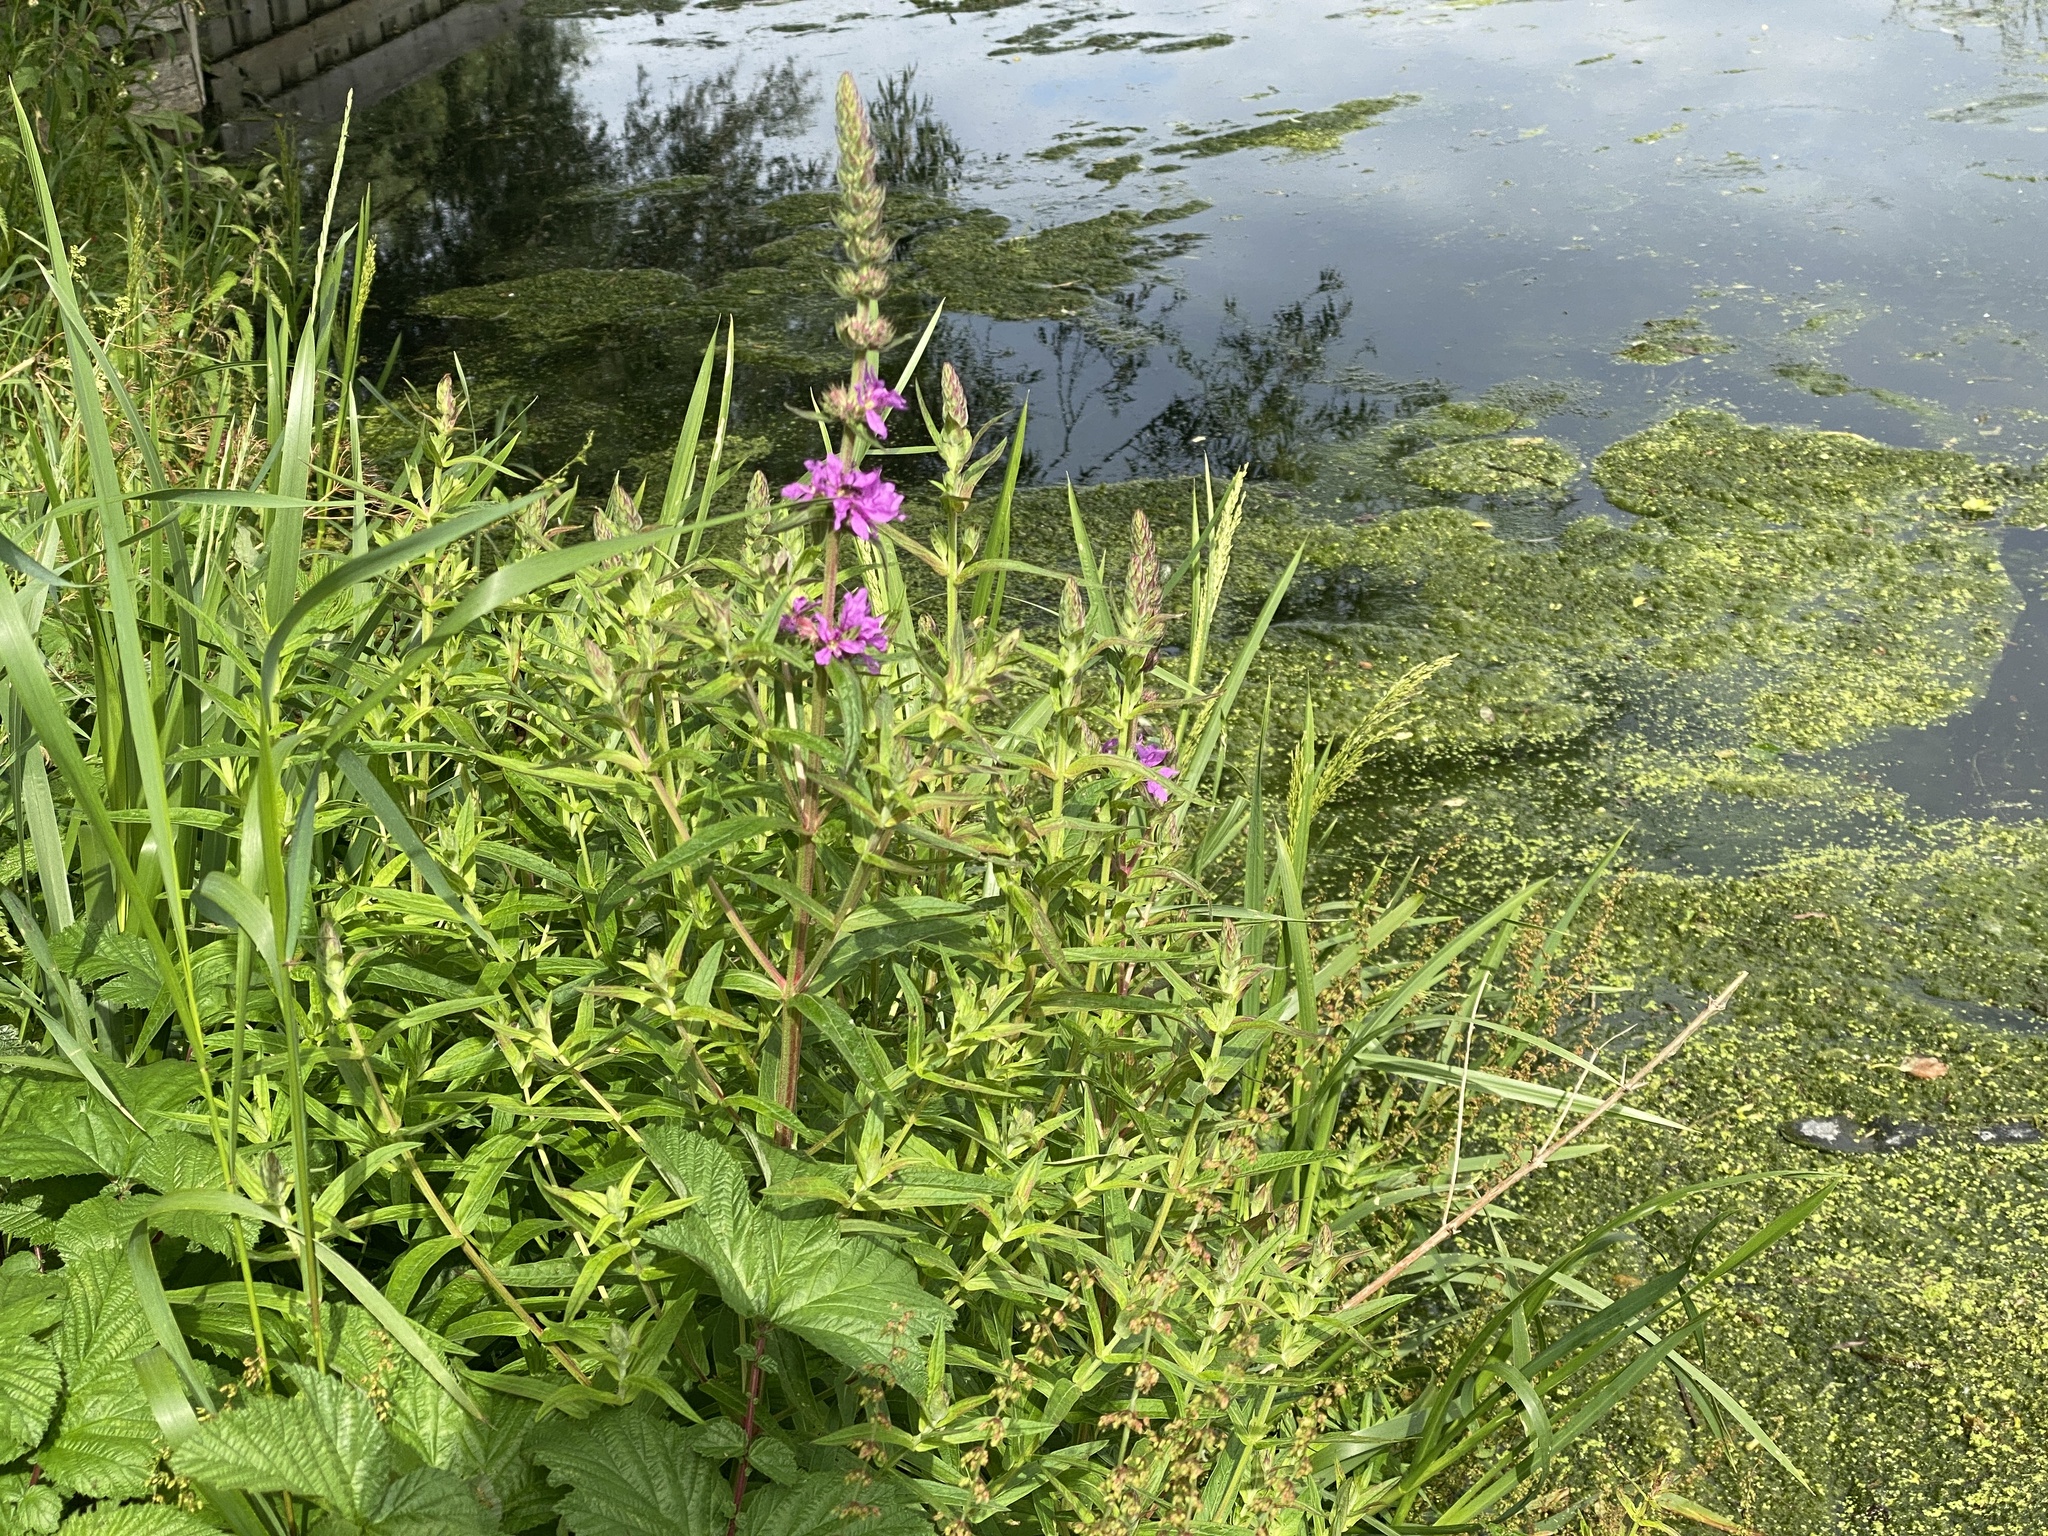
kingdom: Plantae
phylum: Tracheophyta
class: Magnoliopsida
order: Myrtales
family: Lythraceae
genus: Lythrum
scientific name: Lythrum salicaria
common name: Purple loosestrife
